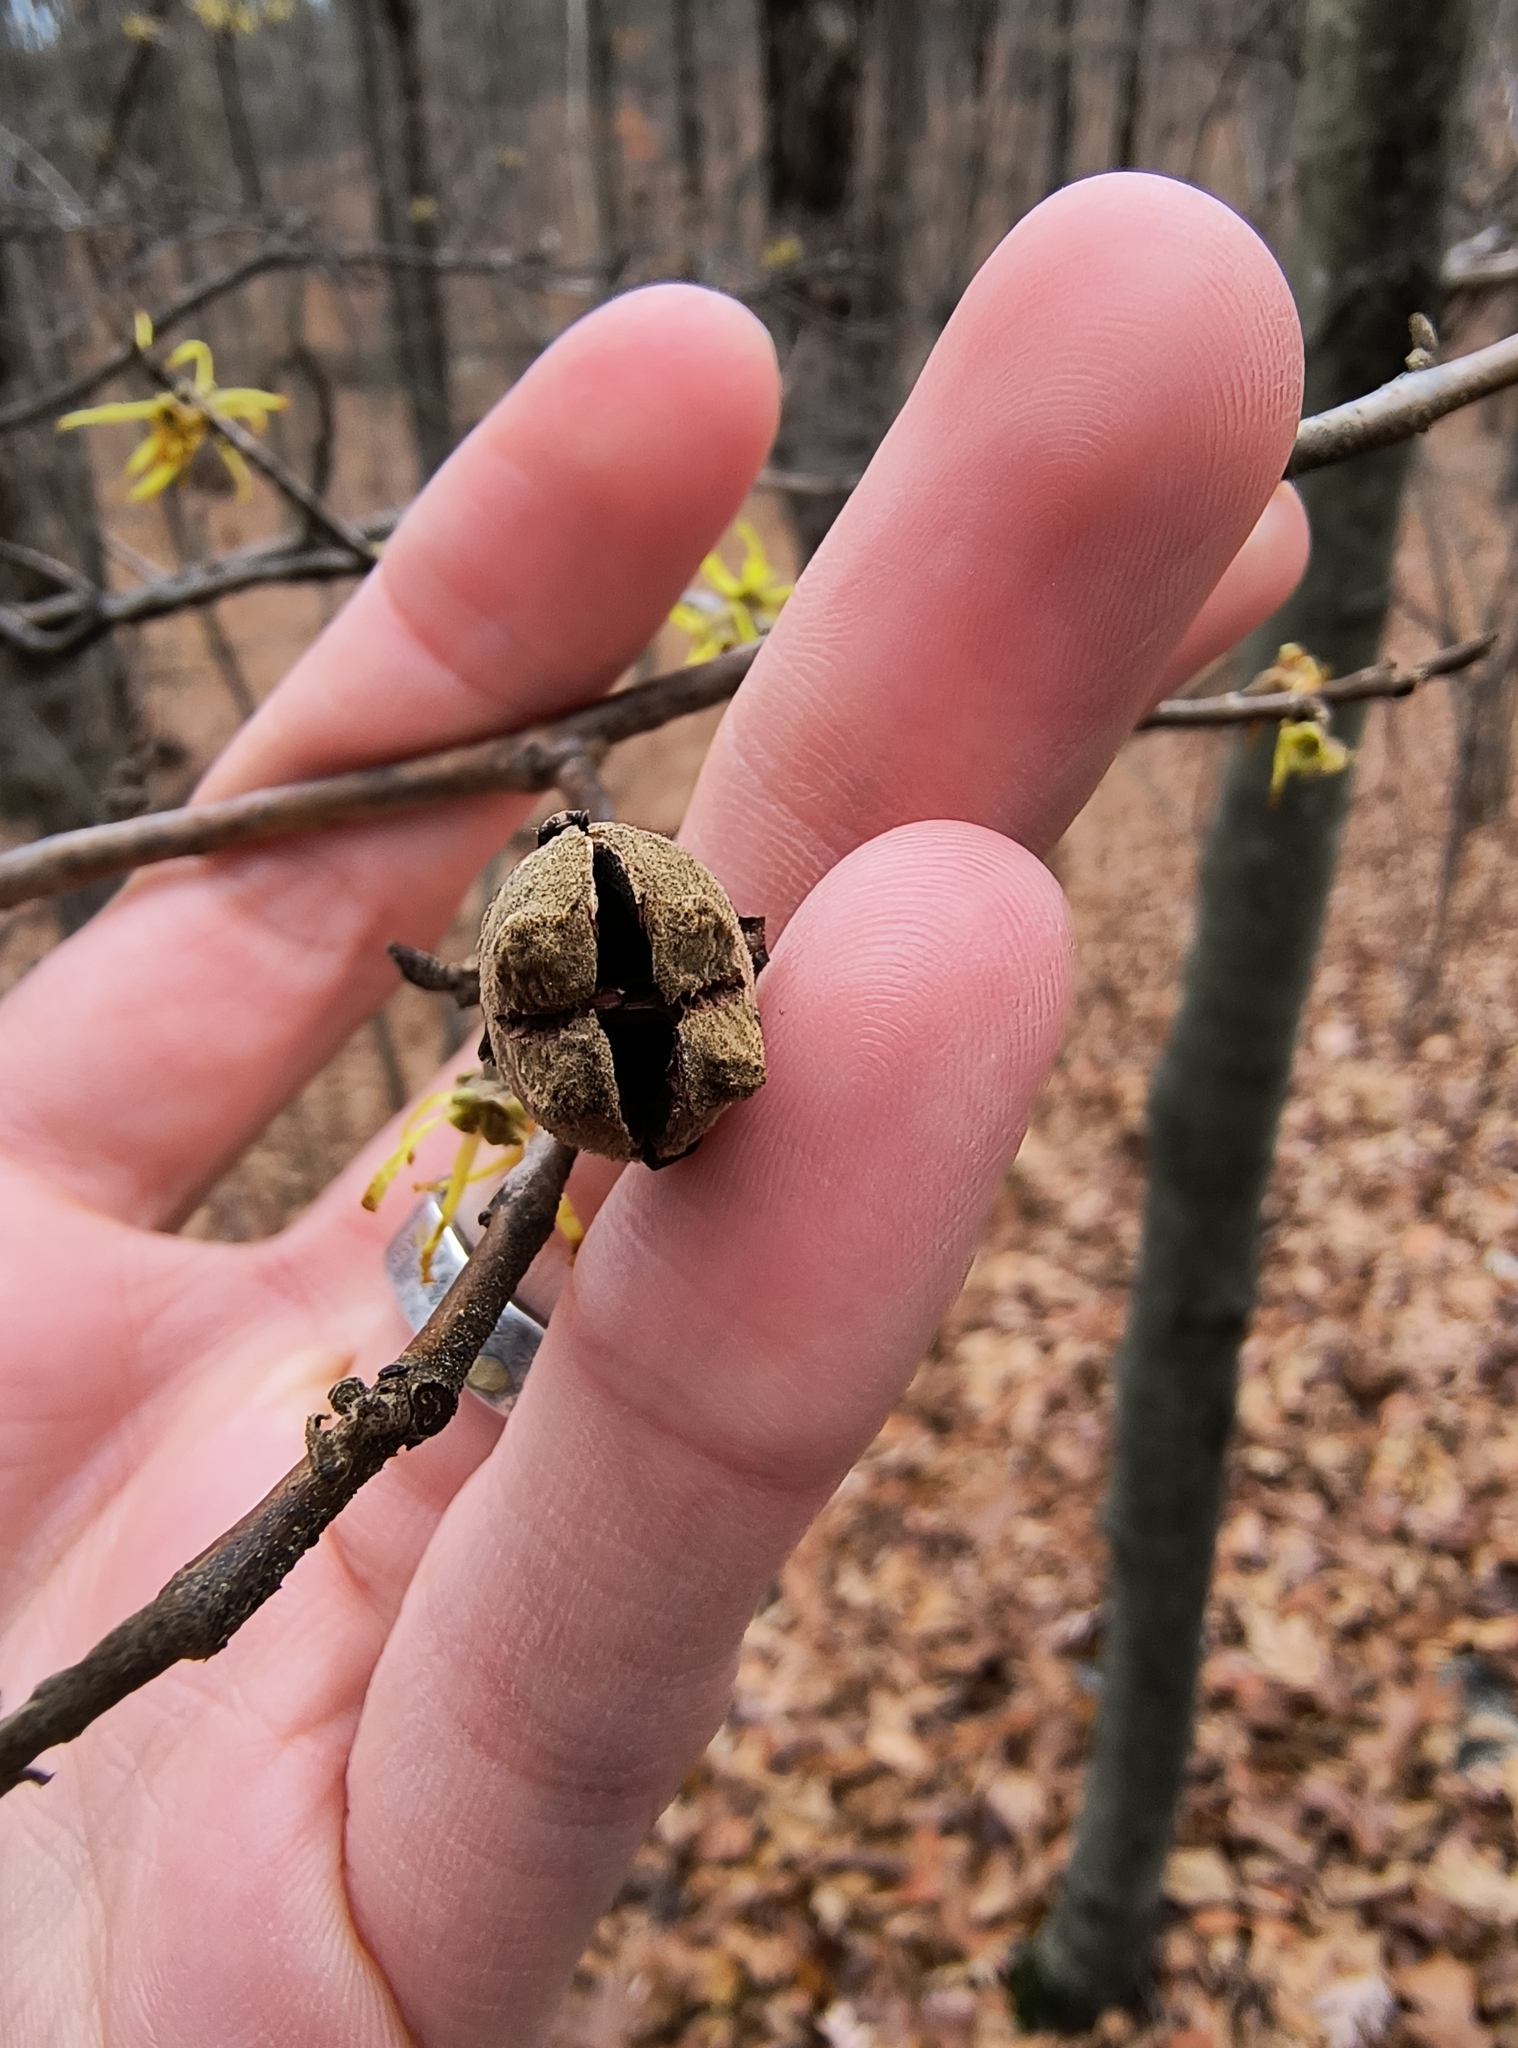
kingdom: Plantae
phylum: Tracheophyta
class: Magnoliopsida
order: Saxifragales
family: Hamamelidaceae
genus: Hamamelis
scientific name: Hamamelis virginiana
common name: Witch-hazel
